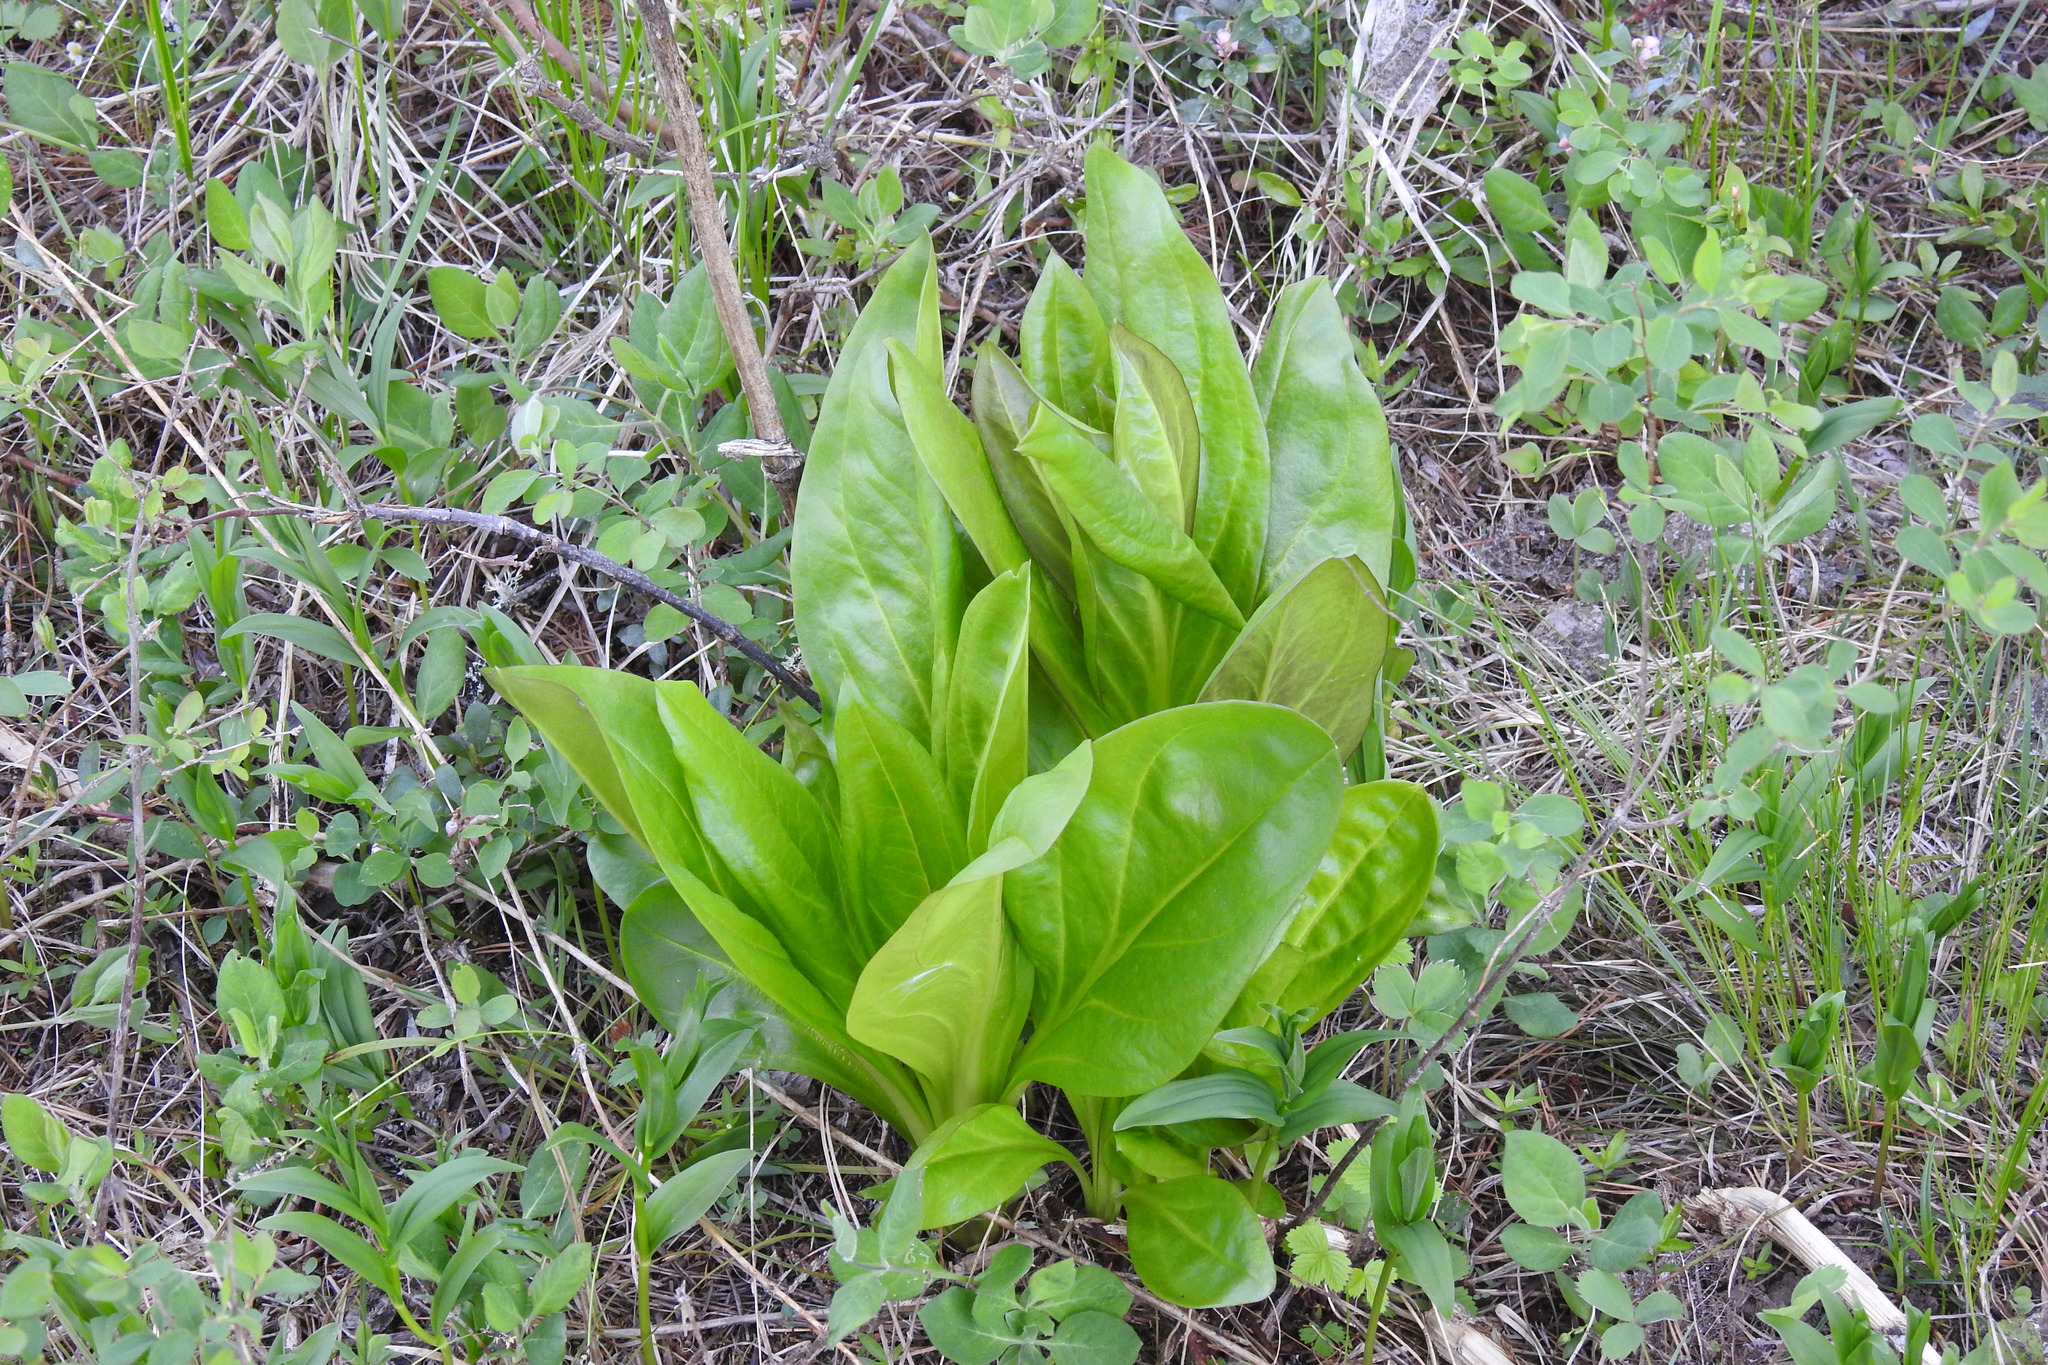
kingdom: Plantae
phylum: Tracheophyta
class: Magnoliopsida
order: Gentianales
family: Gentianaceae
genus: Frasera
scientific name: Frasera fastigiata
